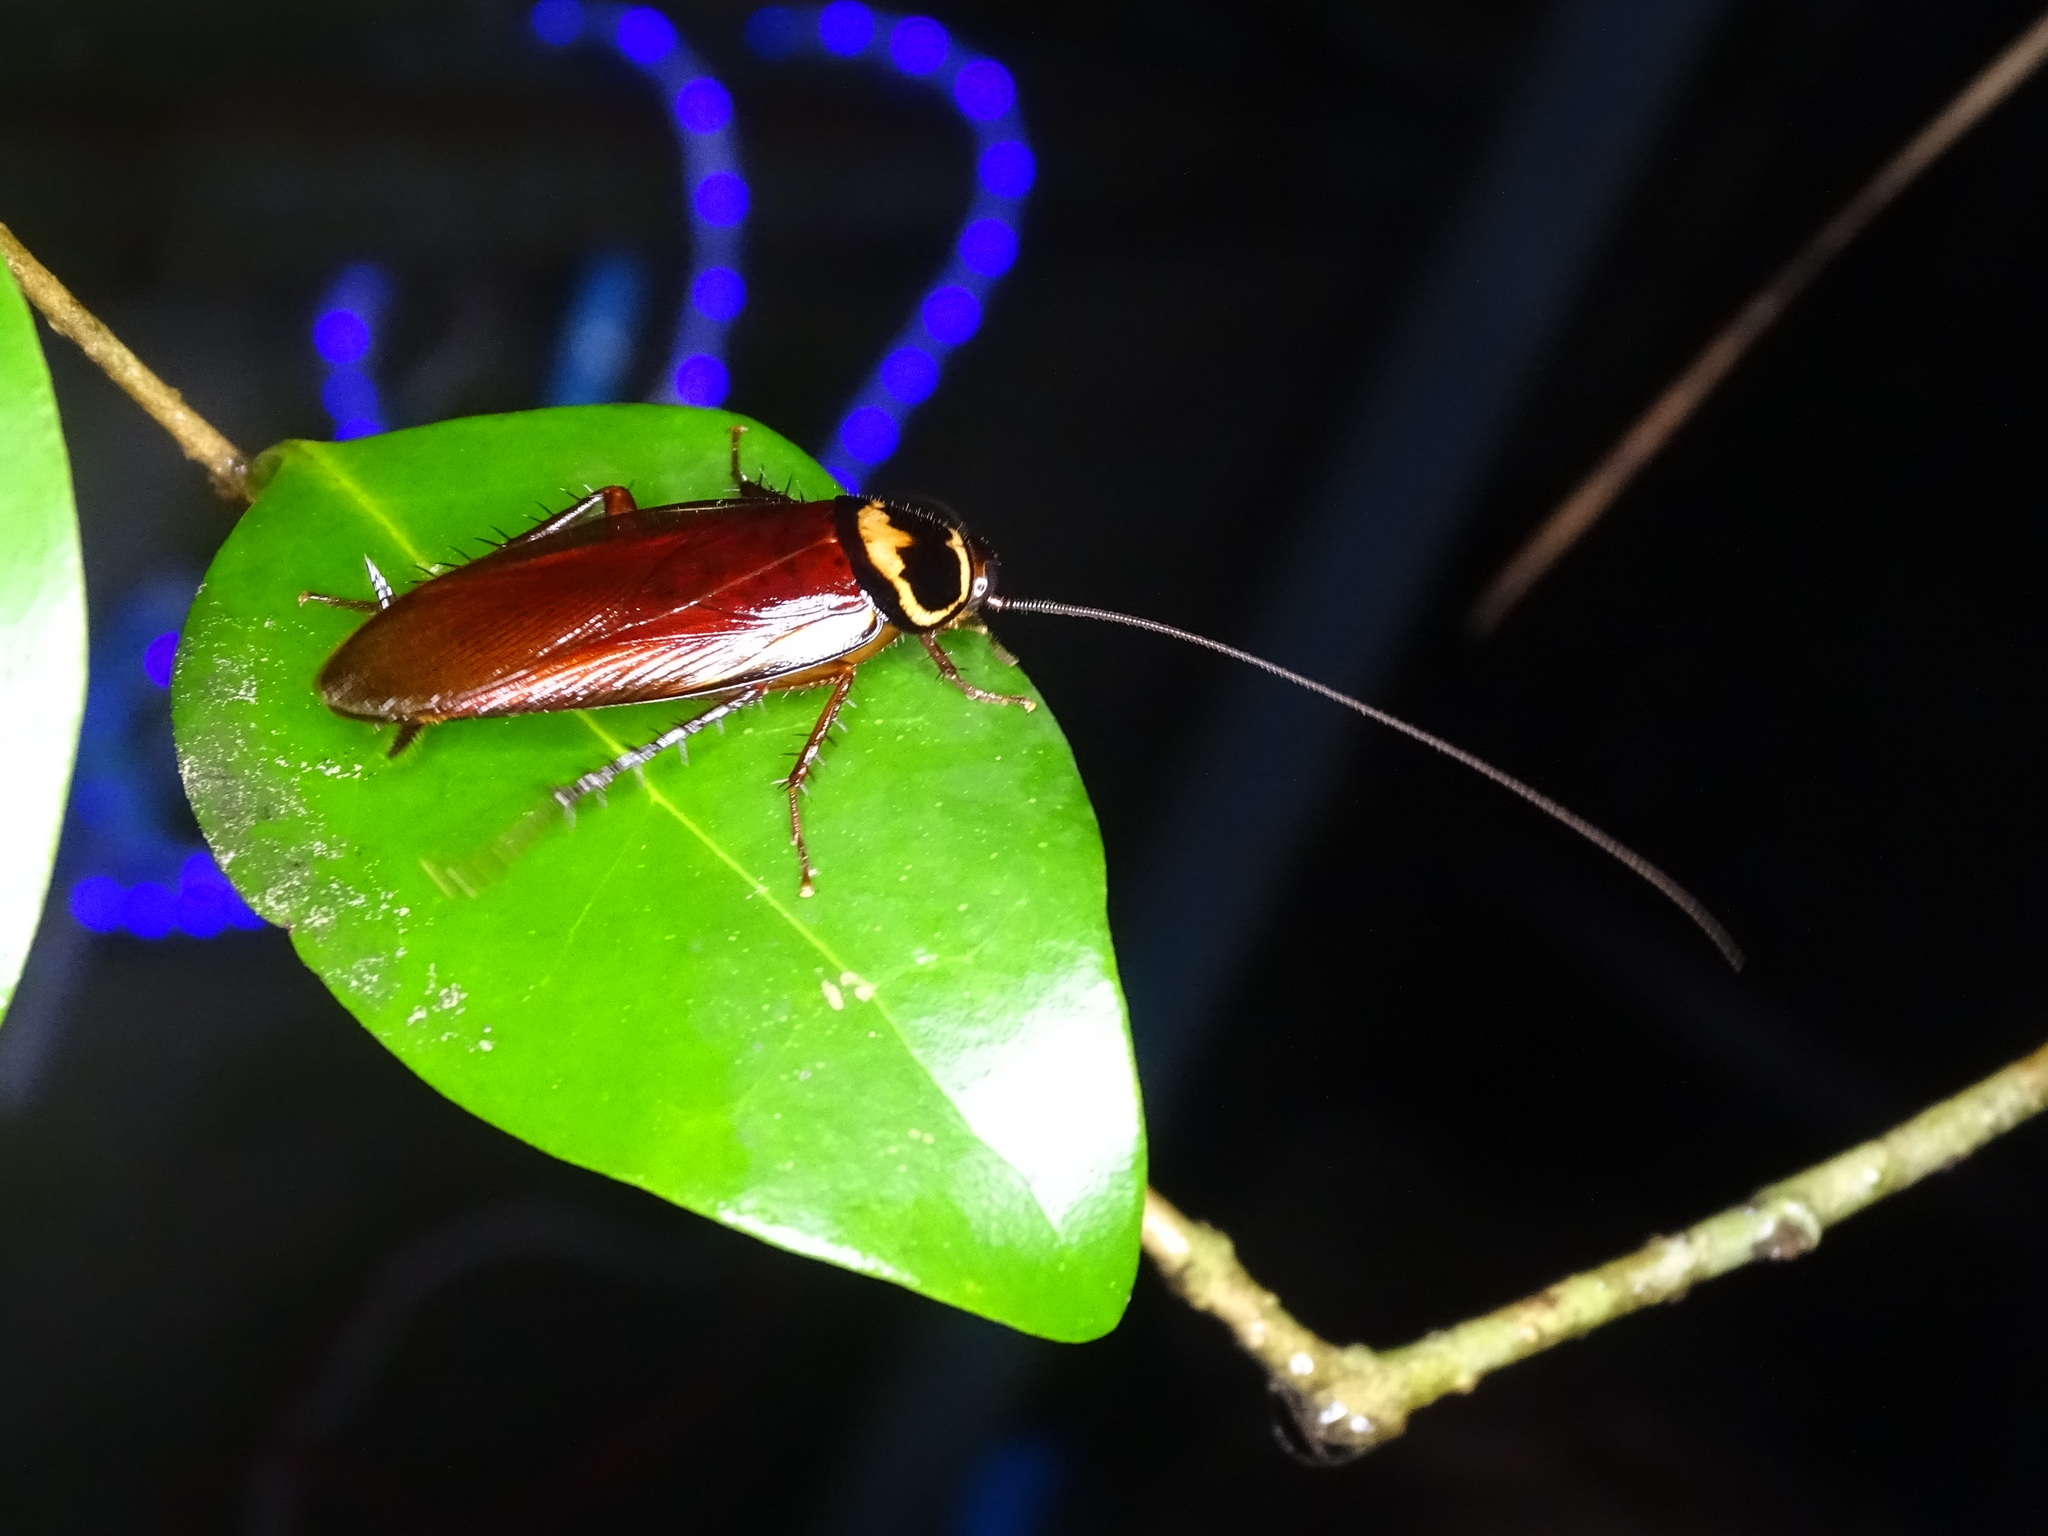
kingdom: Animalia
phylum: Arthropoda
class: Insecta
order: Blattodea
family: Blattidae
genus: Periplaneta
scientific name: Periplaneta australasiae
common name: Australian cockroach
